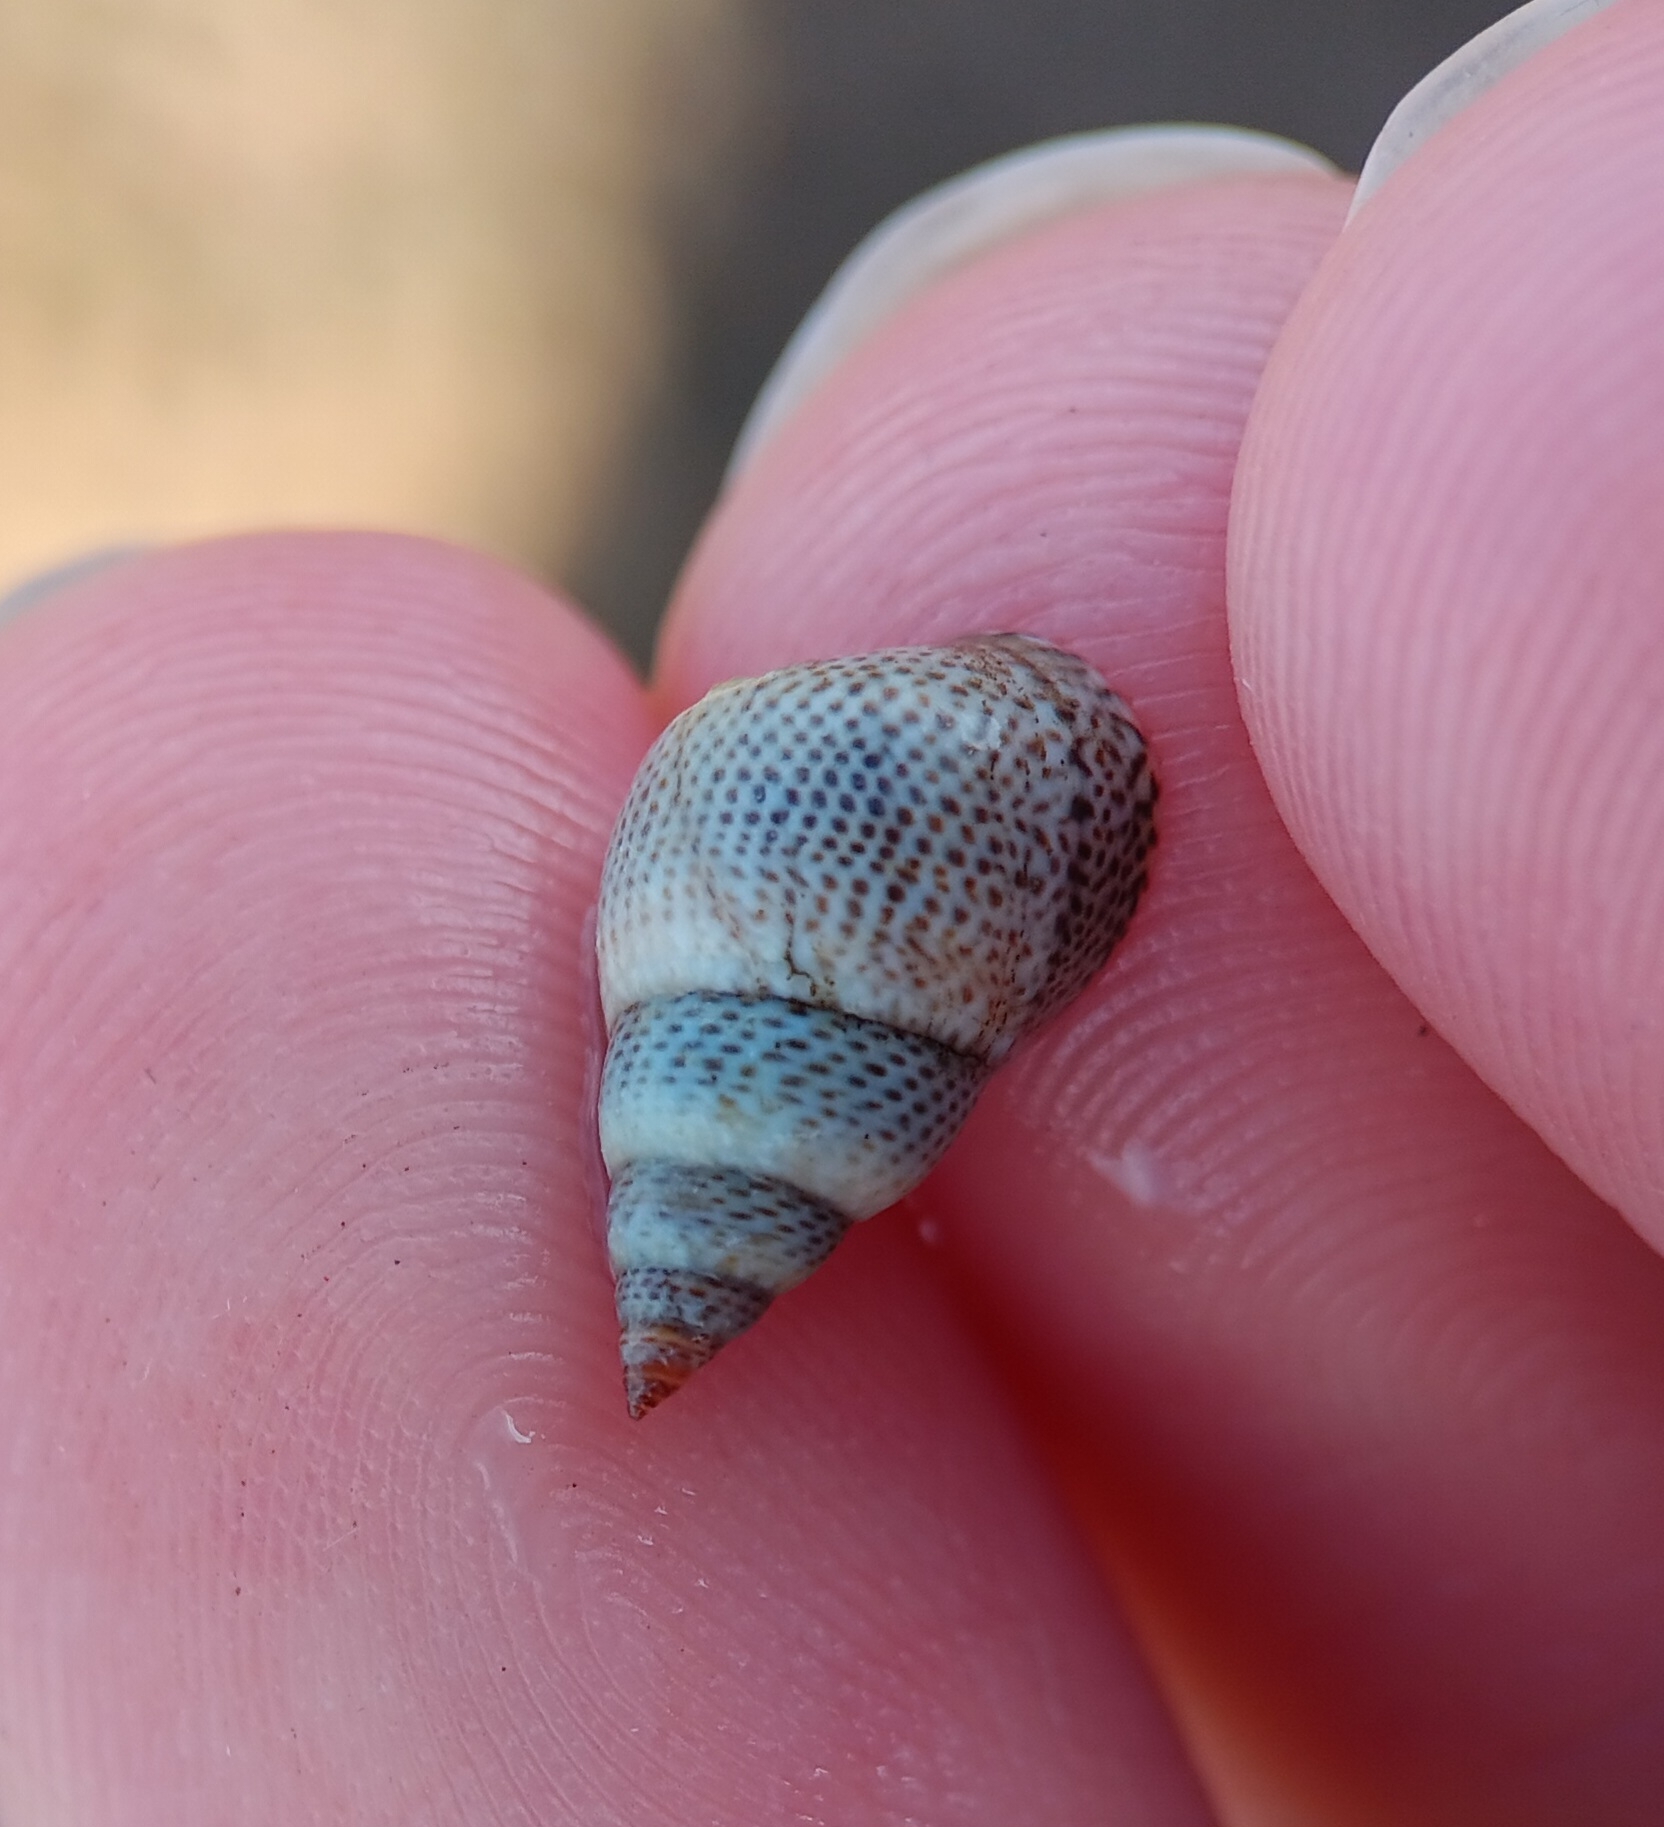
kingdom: Animalia
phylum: Mollusca
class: Gastropoda
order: Littorinimorpha
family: Littorinidae
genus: Littoraria
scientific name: Littoraria pintado
